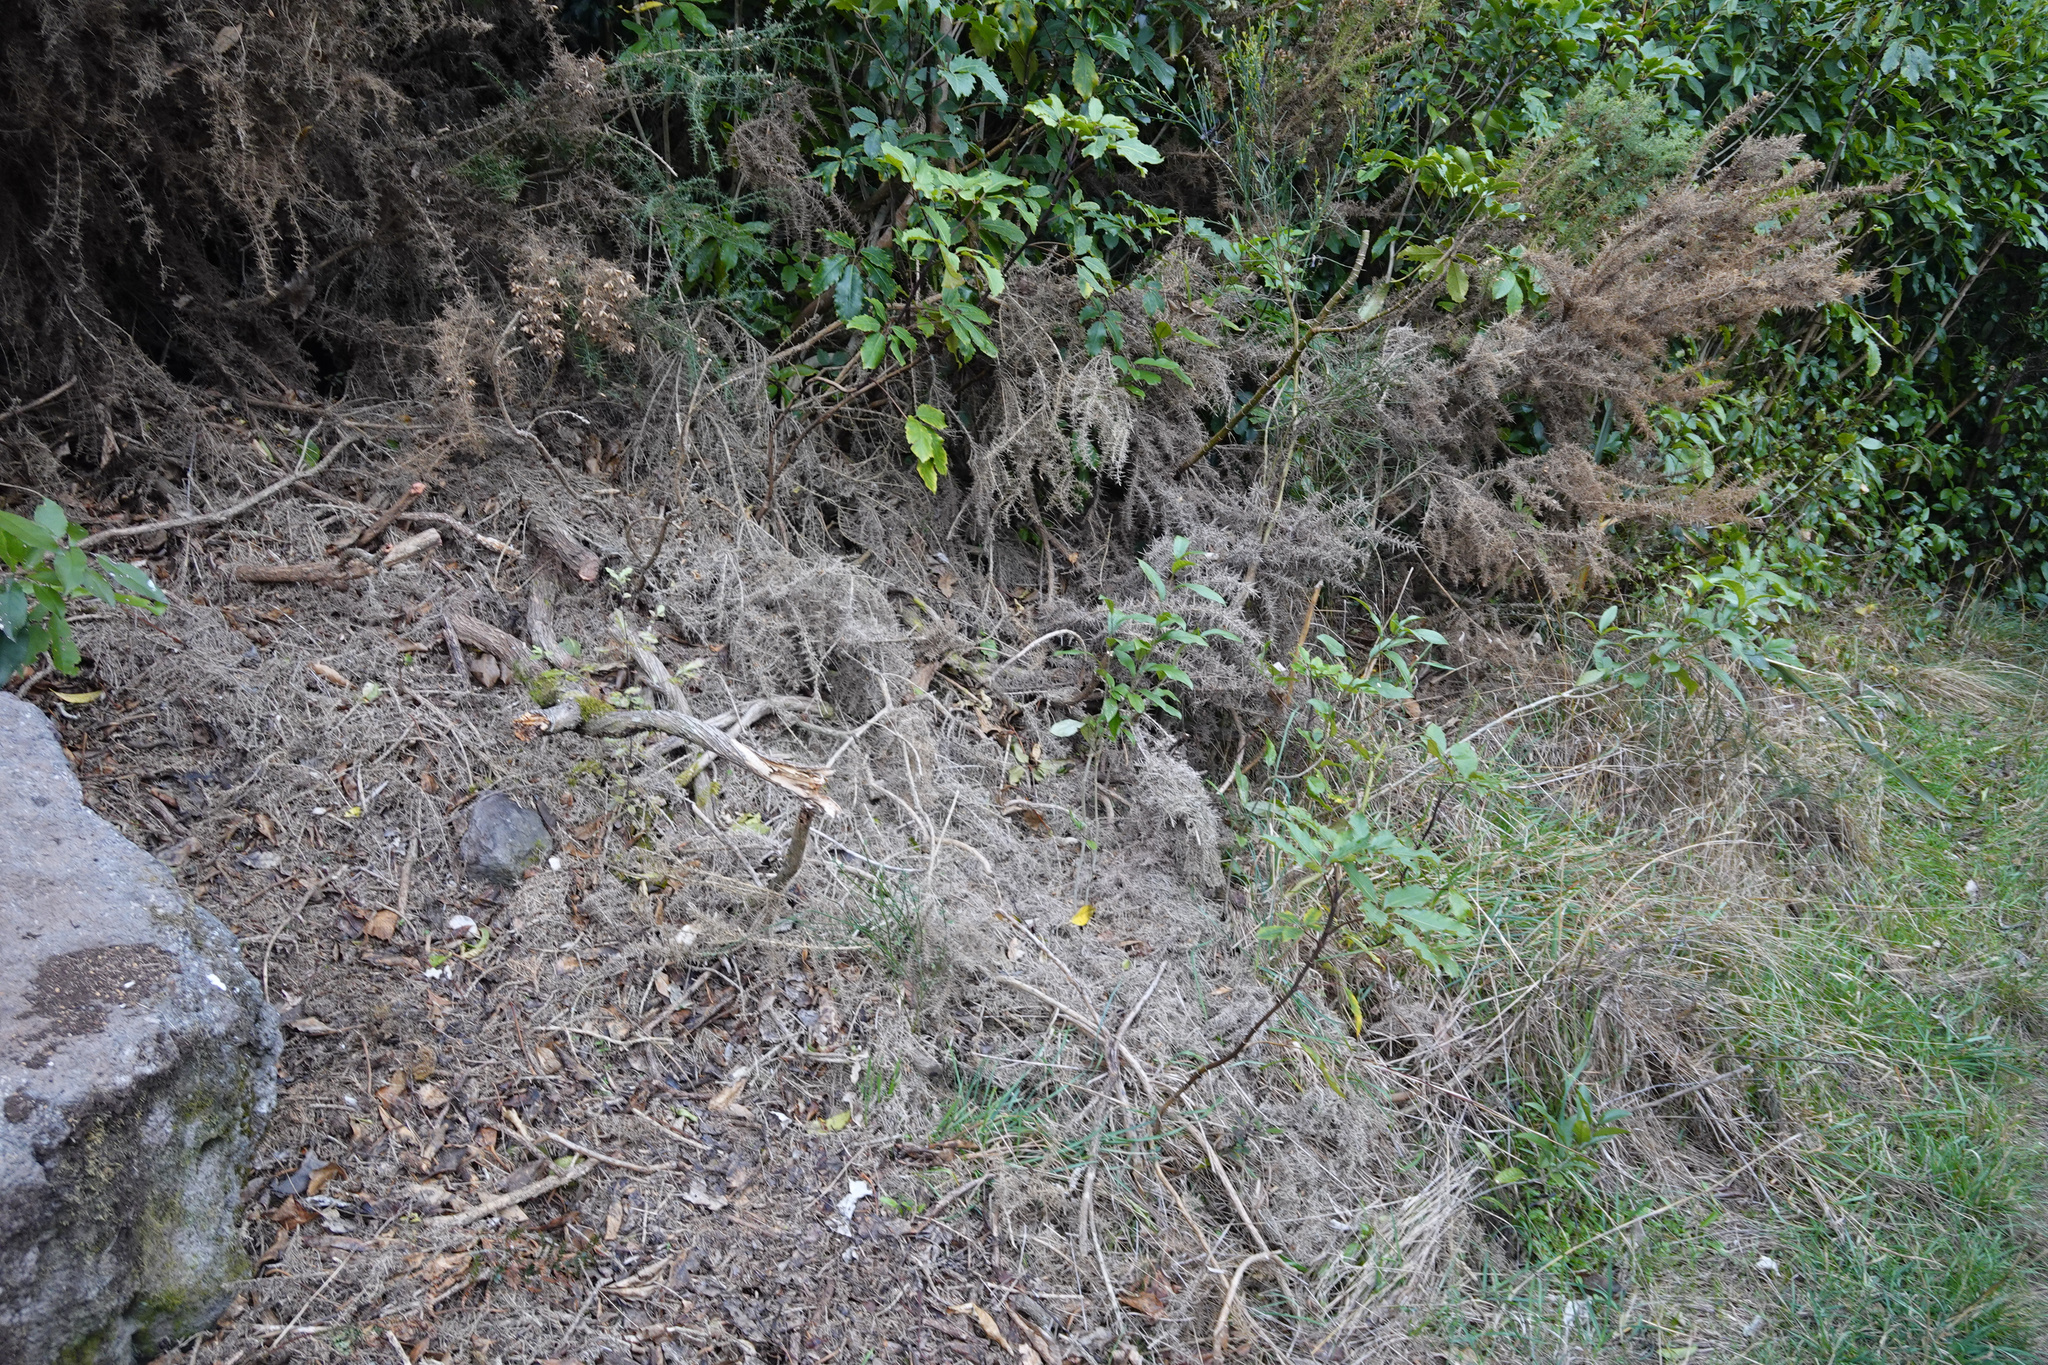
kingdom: Plantae
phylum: Tracheophyta
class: Magnoliopsida
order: Fabales
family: Fabaceae
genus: Ulex
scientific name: Ulex europaeus
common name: Common gorse
